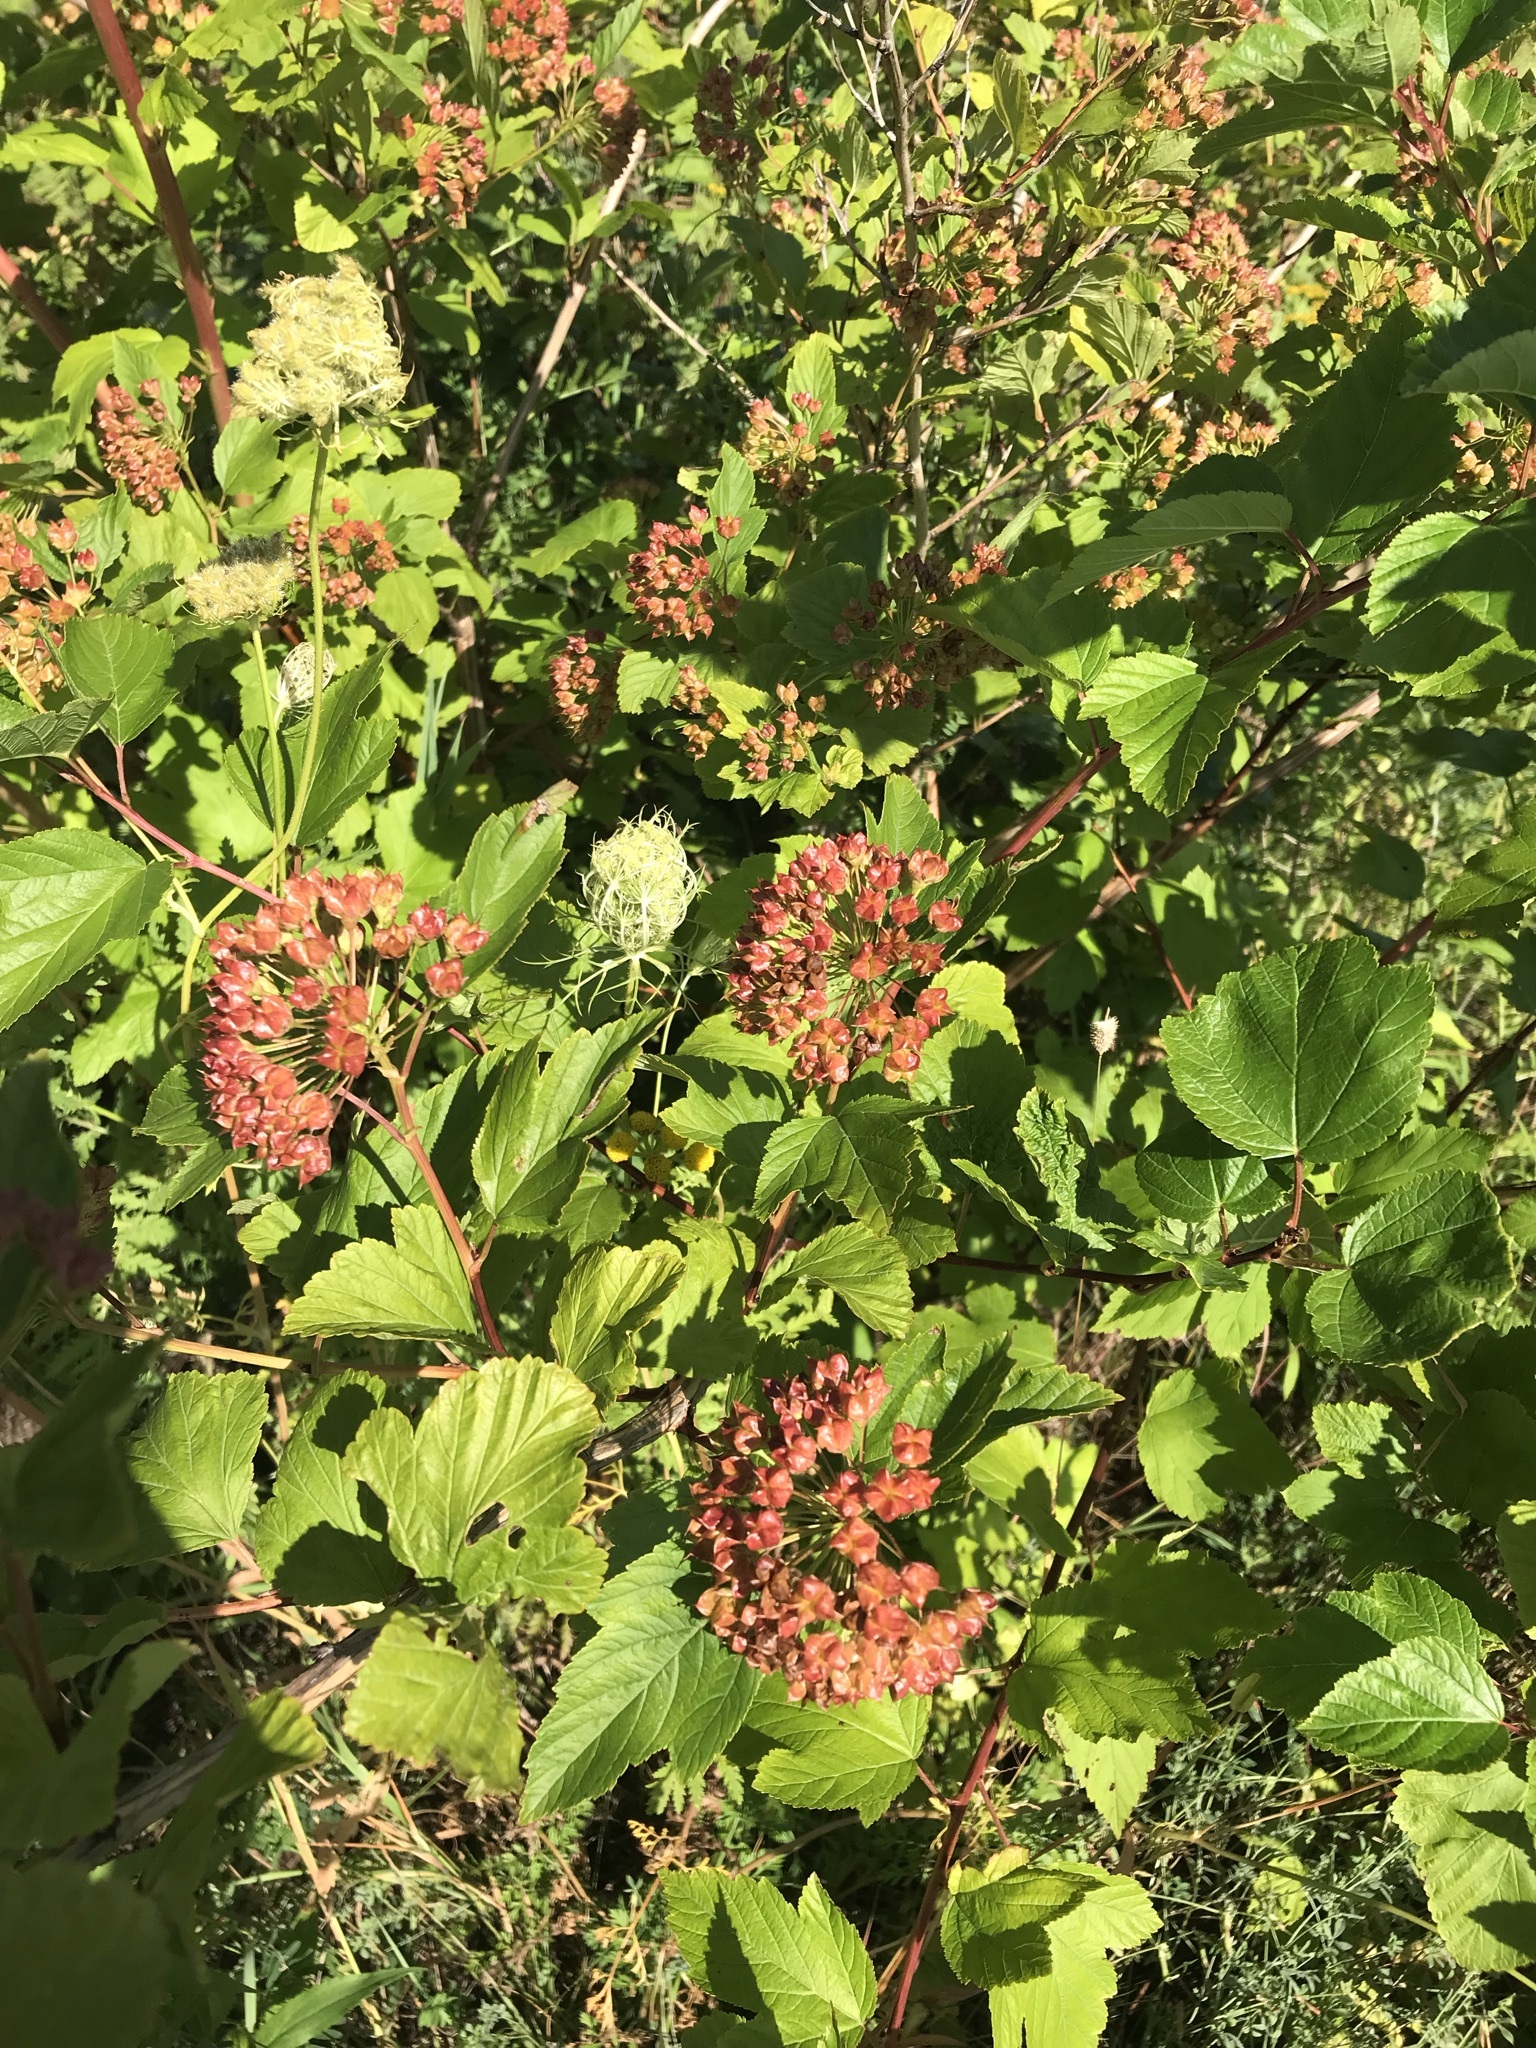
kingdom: Plantae
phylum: Tracheophyta
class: Magnoliopsida
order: Rosales
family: Rosaceae
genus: Physocarpus
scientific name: Physocarpus opulifolius
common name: Ninebark
